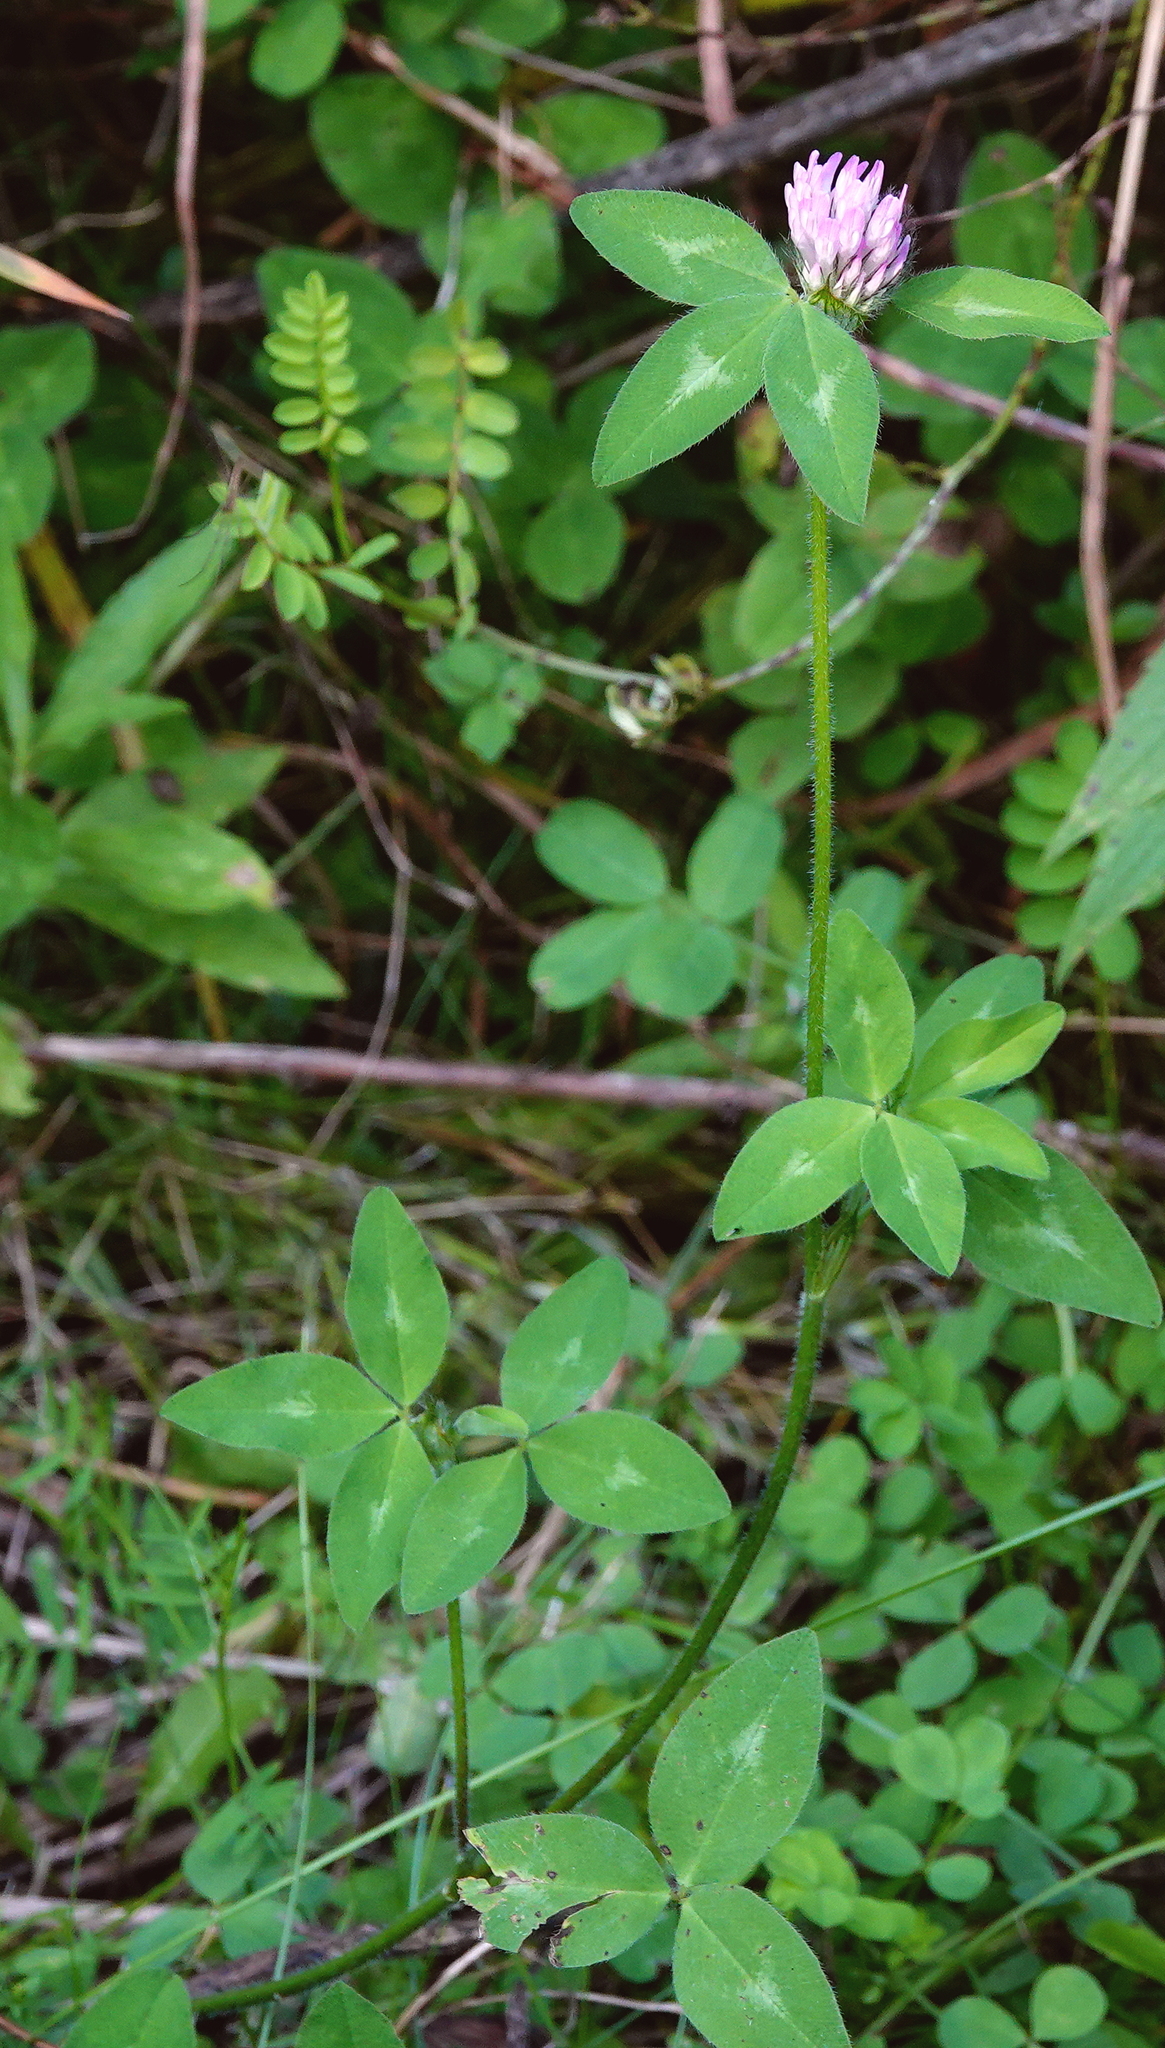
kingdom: Plantae
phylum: Tracheophyta
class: Magnoliopsida
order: Fabales
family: Fabaceae
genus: Trifolium
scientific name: Trifolium pratense
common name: Red clover
